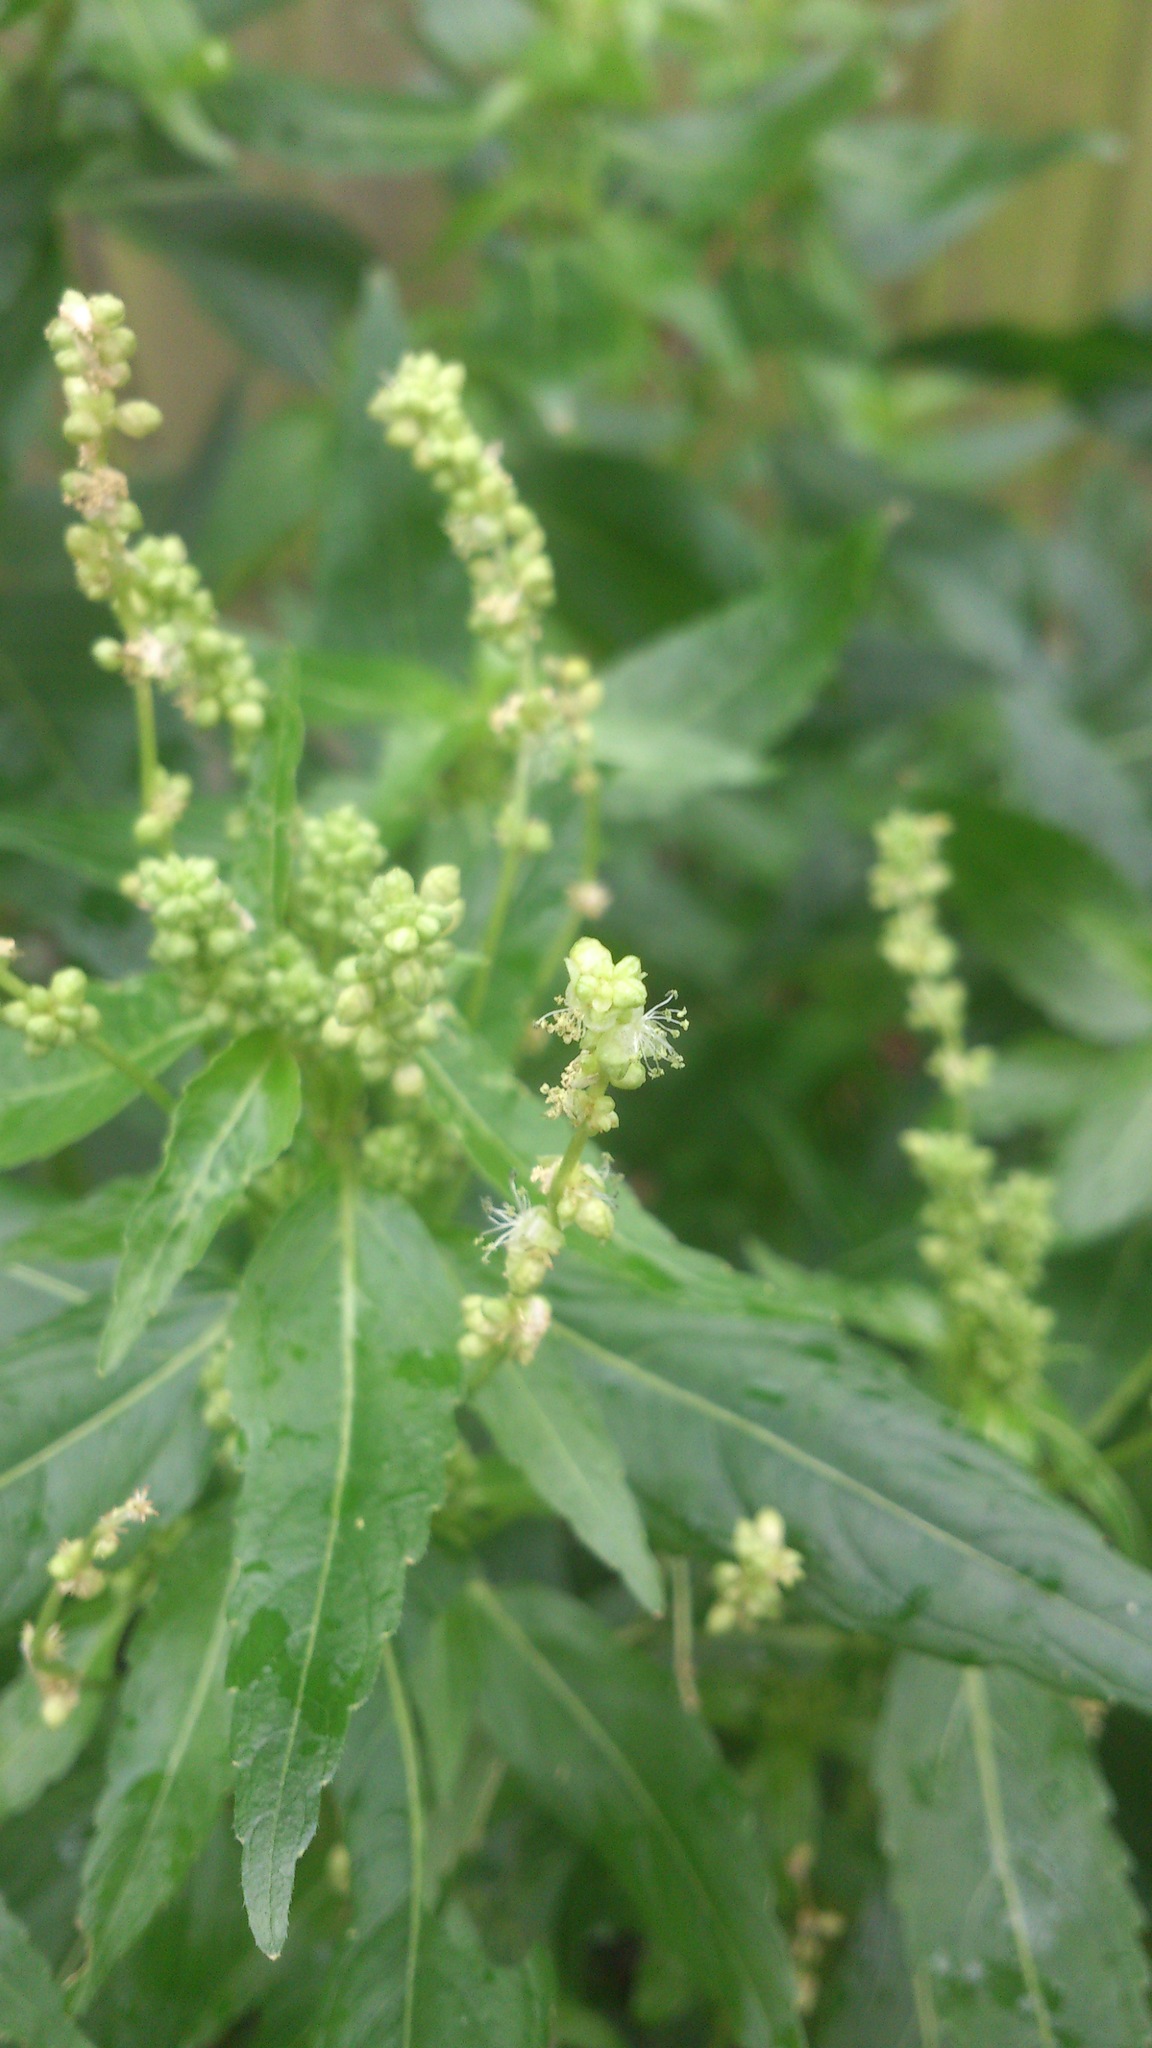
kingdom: Plantae
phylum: Tracheophyta
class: Magnoliopsida
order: Malpighiales
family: Euphorbiaceae
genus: Mercurialis
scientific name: Mercurialis annua
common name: Annual mercury
